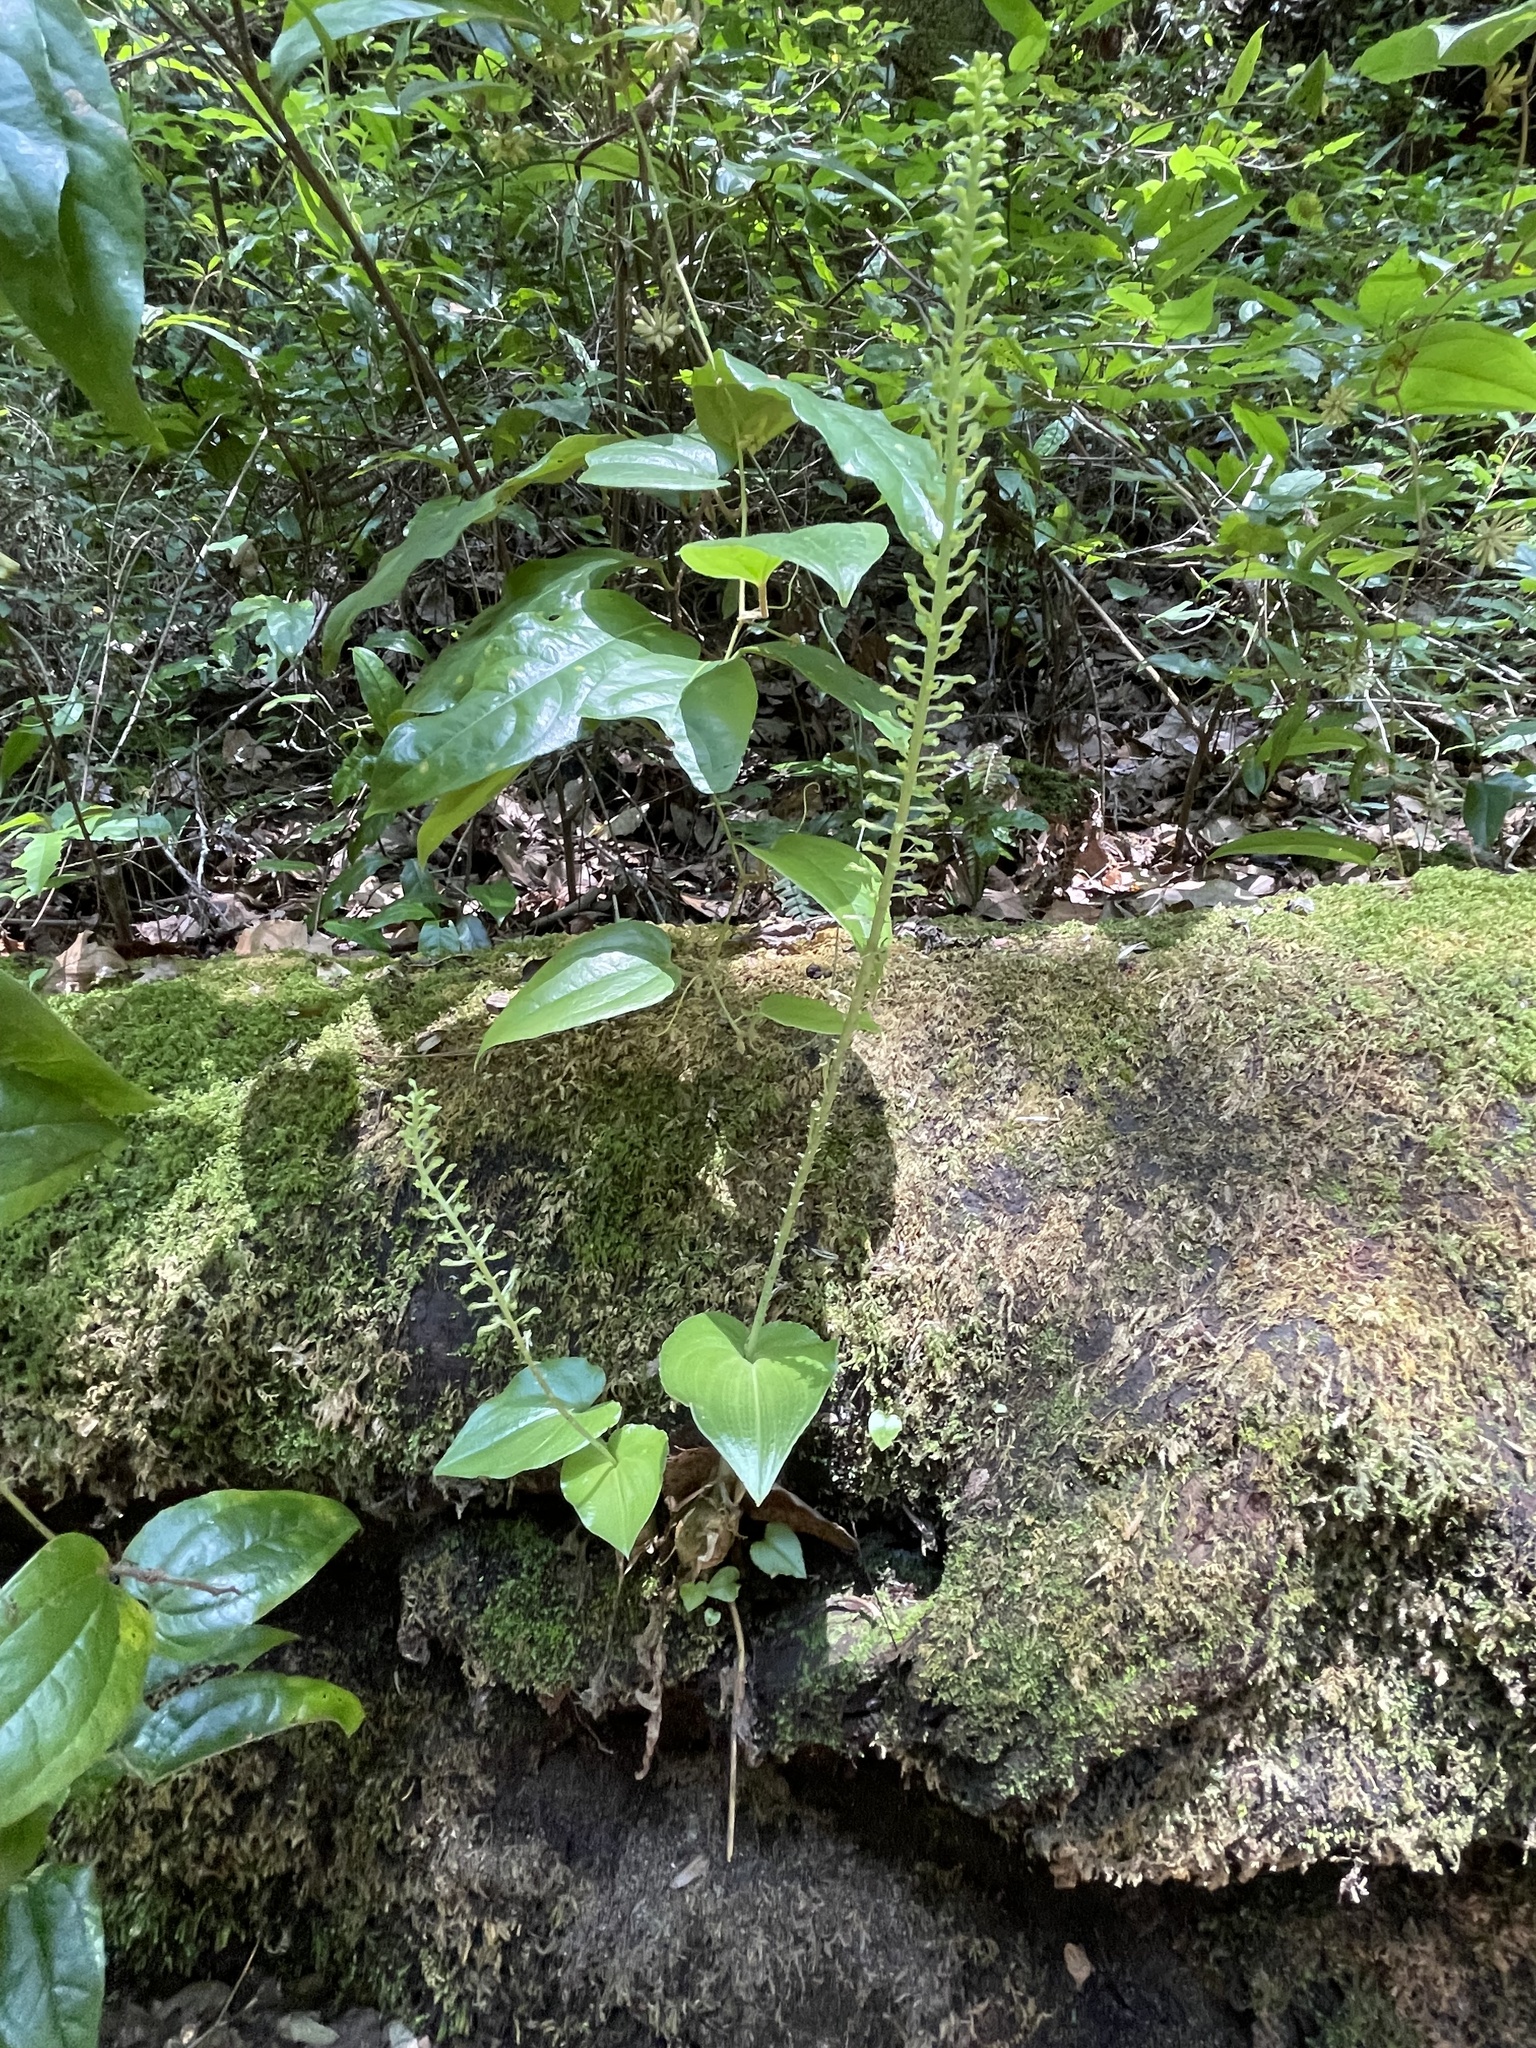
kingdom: Plantae
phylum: Tracheophyta
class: Liliopsida
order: Asparagales
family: Orchidaceae
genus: Malaxis
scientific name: Malaxis maianthemifolia
